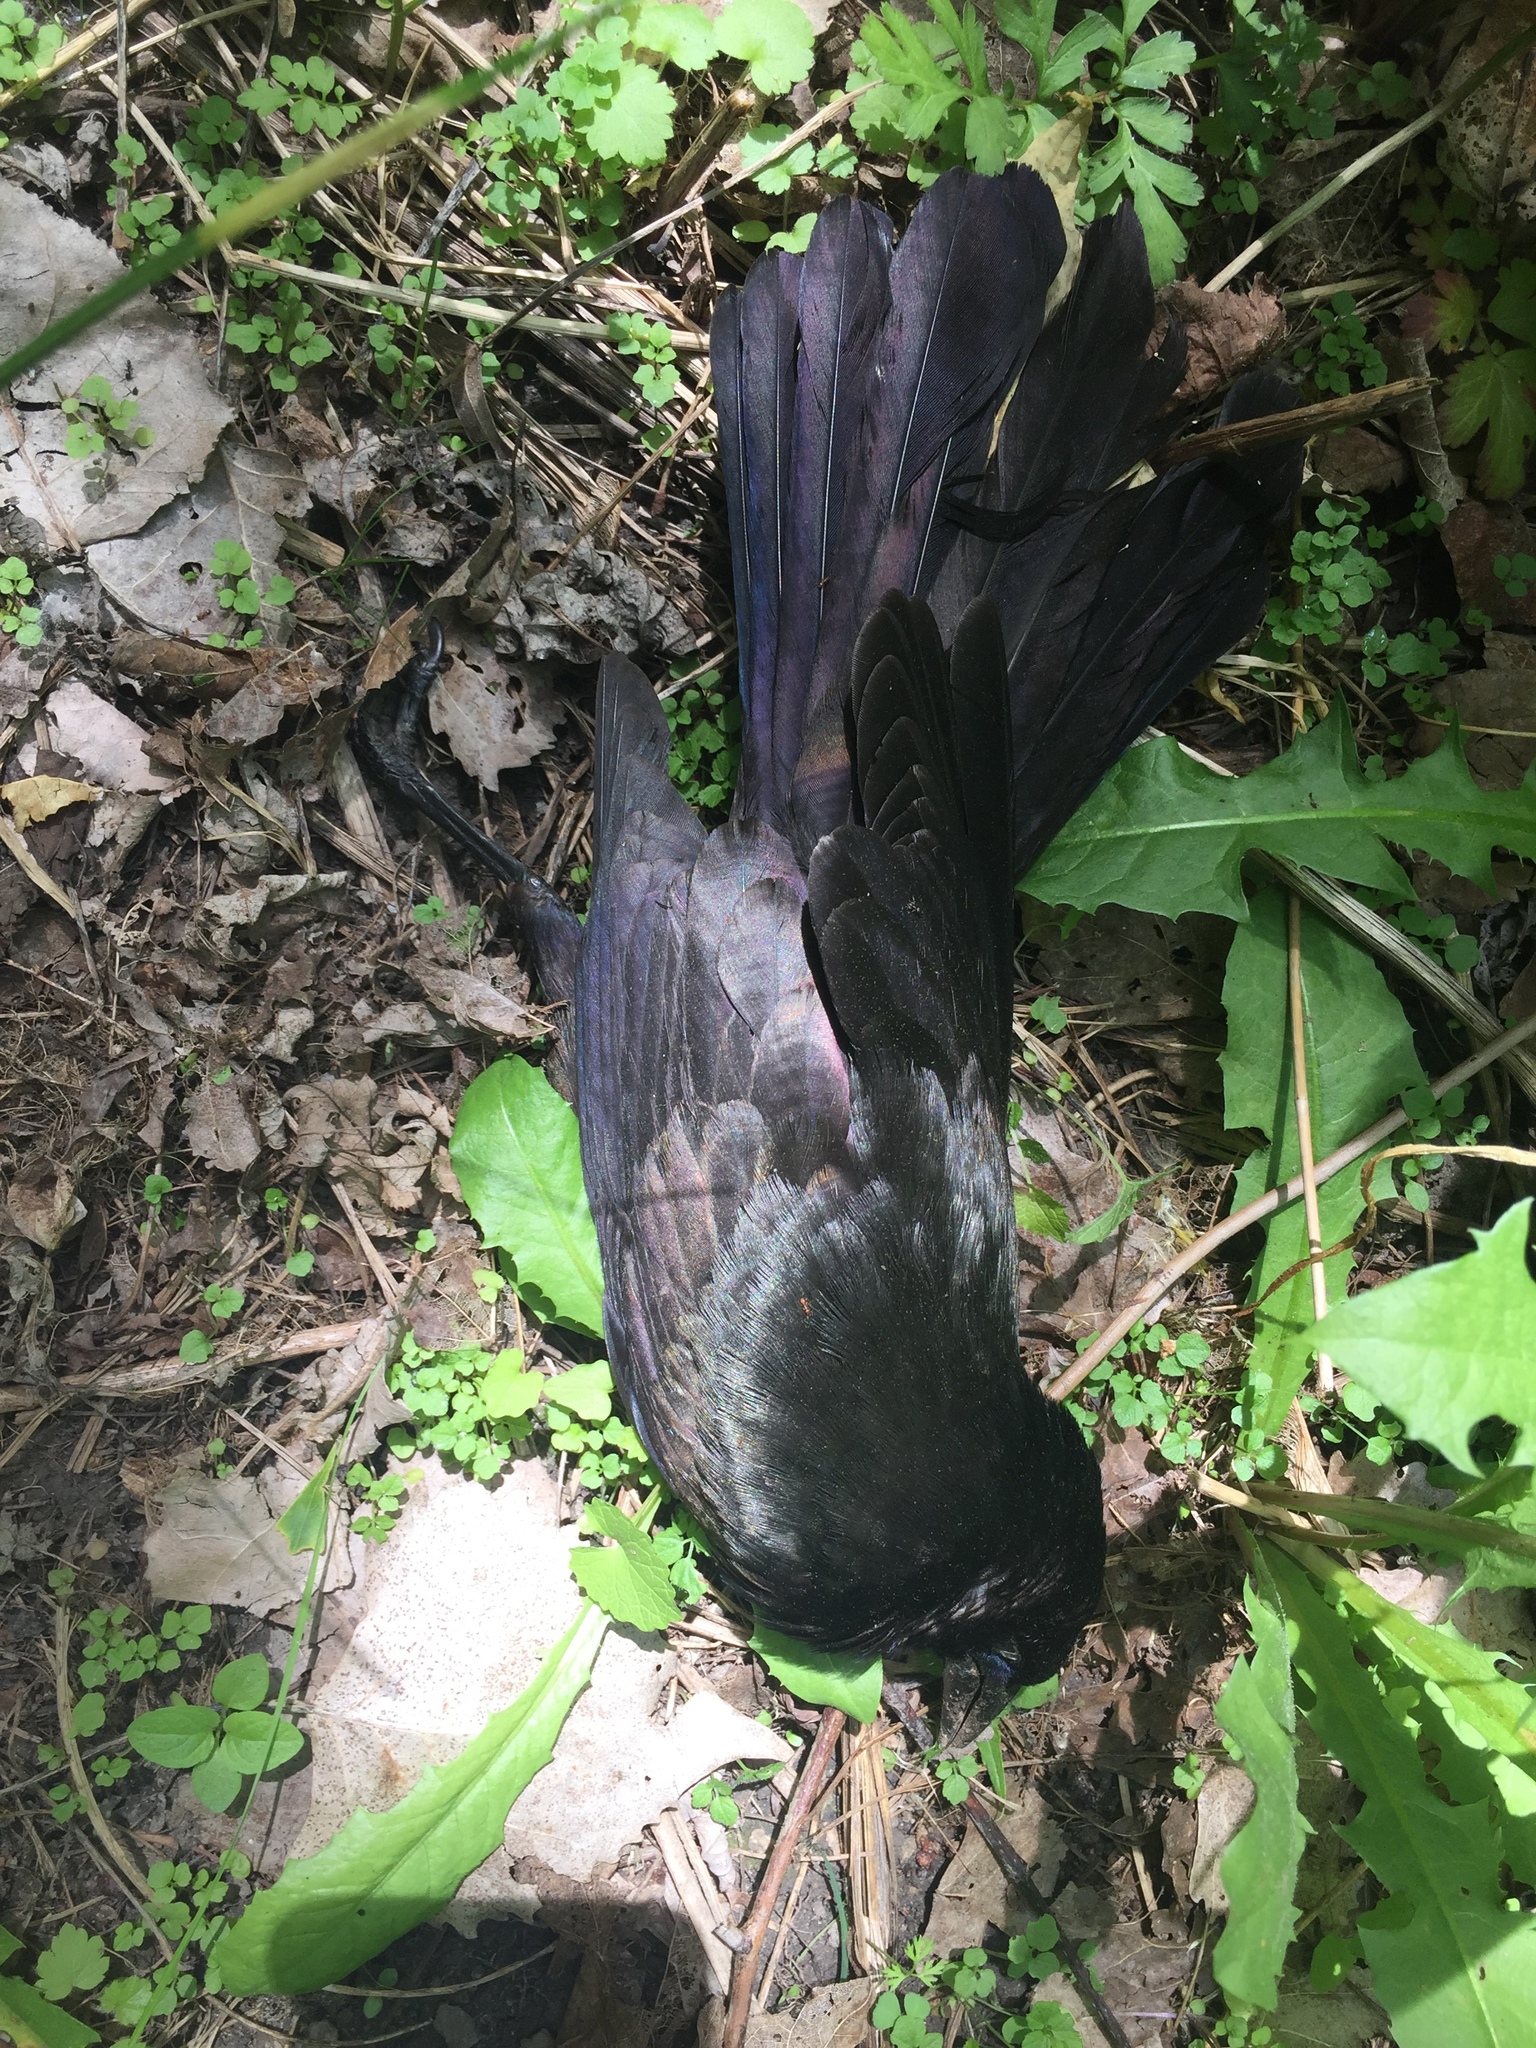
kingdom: Animalia
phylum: Chordata
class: Aves
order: Passeriformes
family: Icteridae
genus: Quiscalus
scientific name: Quiscalus quiscula
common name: Common grackle
